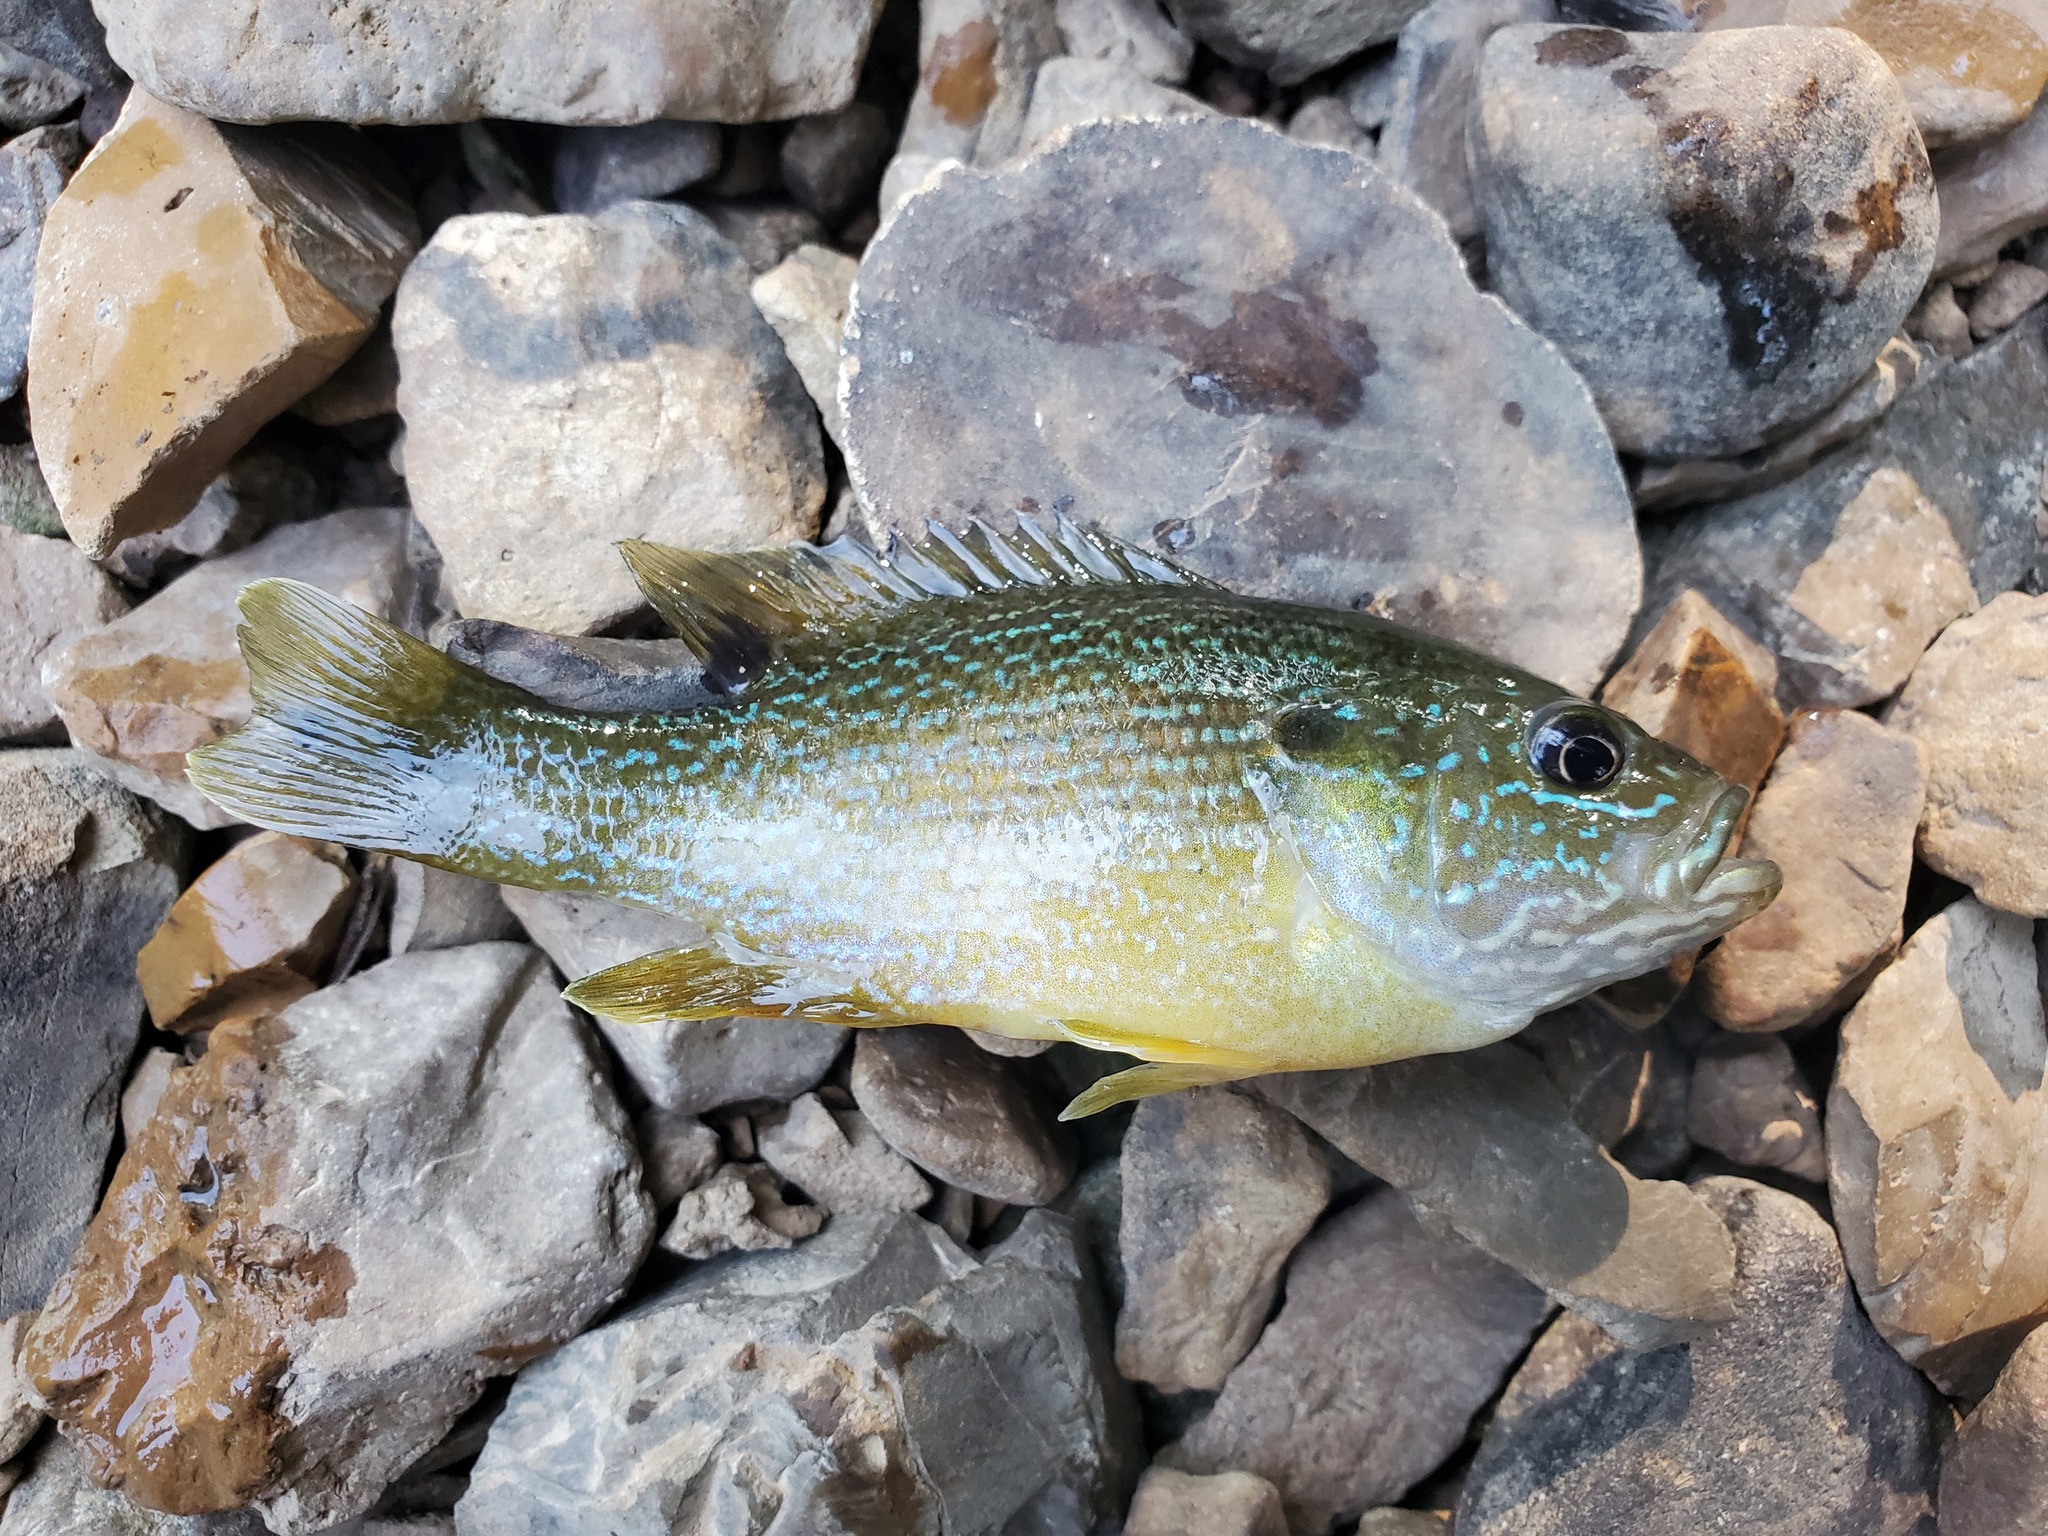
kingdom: Animalia
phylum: Chordata
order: Perciformes
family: Centrarchidae
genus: Lepomis
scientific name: Lepomis cyanellus
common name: Green sunfish
